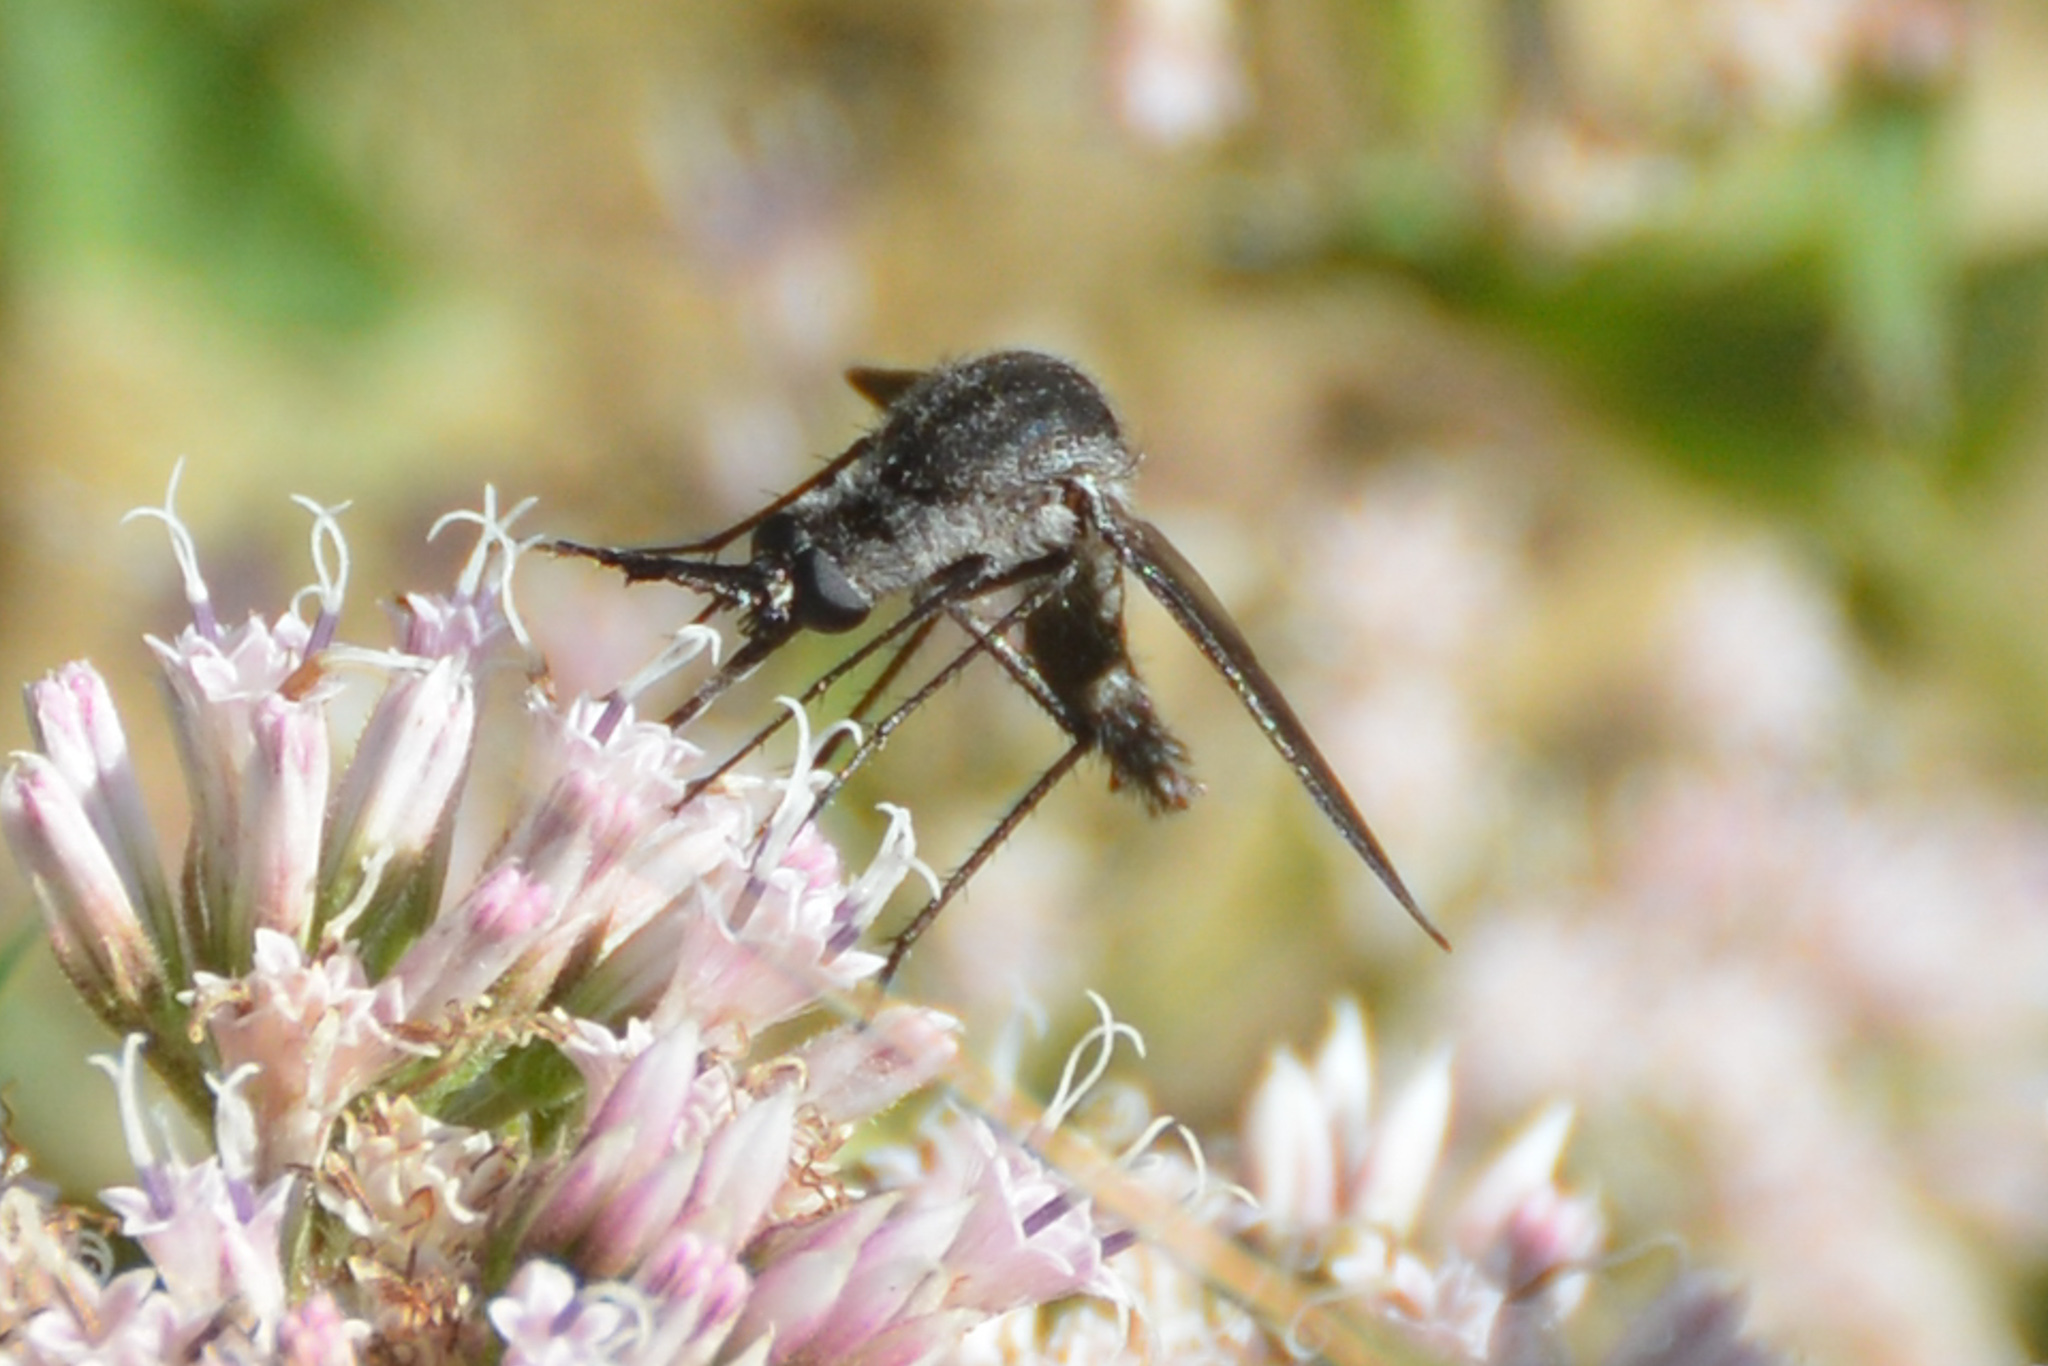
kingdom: Animalia
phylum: Arthropoda
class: Insecta
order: Diptera
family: Bombyliidae
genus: Lepidophora
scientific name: Lepidophora lepidocera
